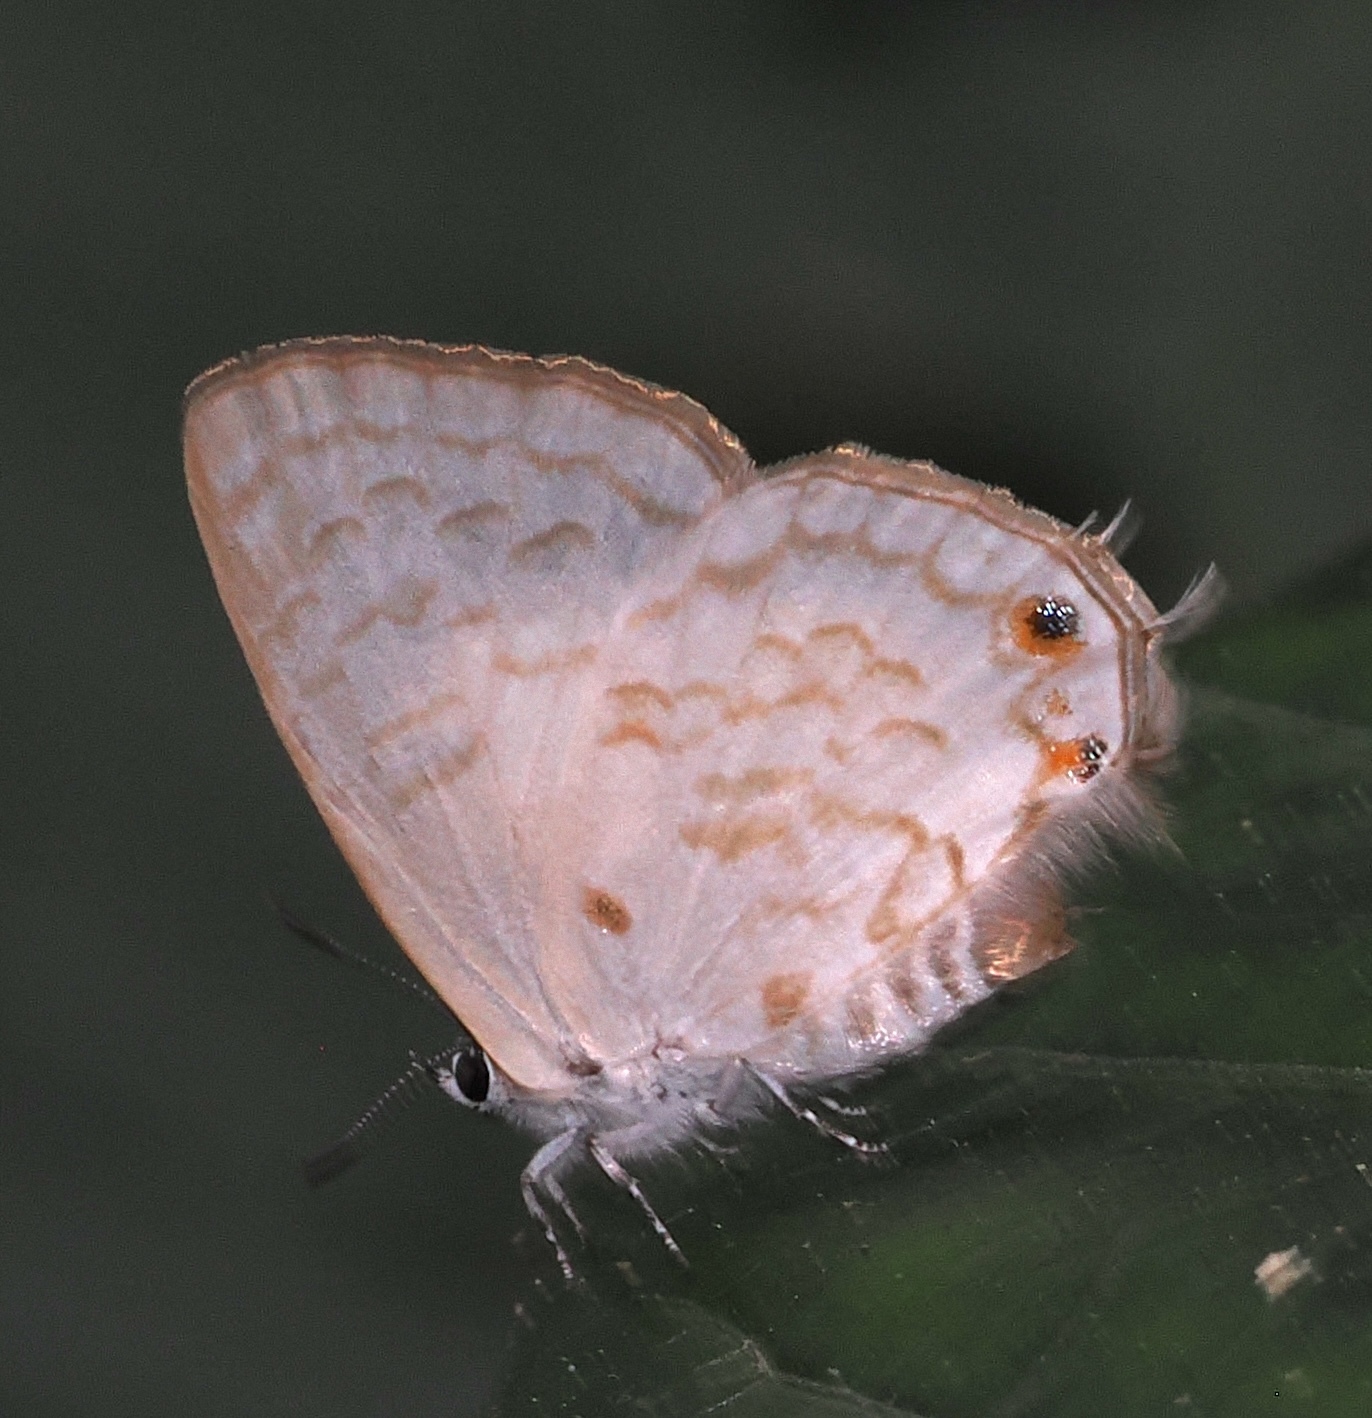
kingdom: Animalia
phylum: Arthropoda
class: Insecta
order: Lepidoptera
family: Lycaenidae
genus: Cupidesthes
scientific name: Cupidesthes lithas
